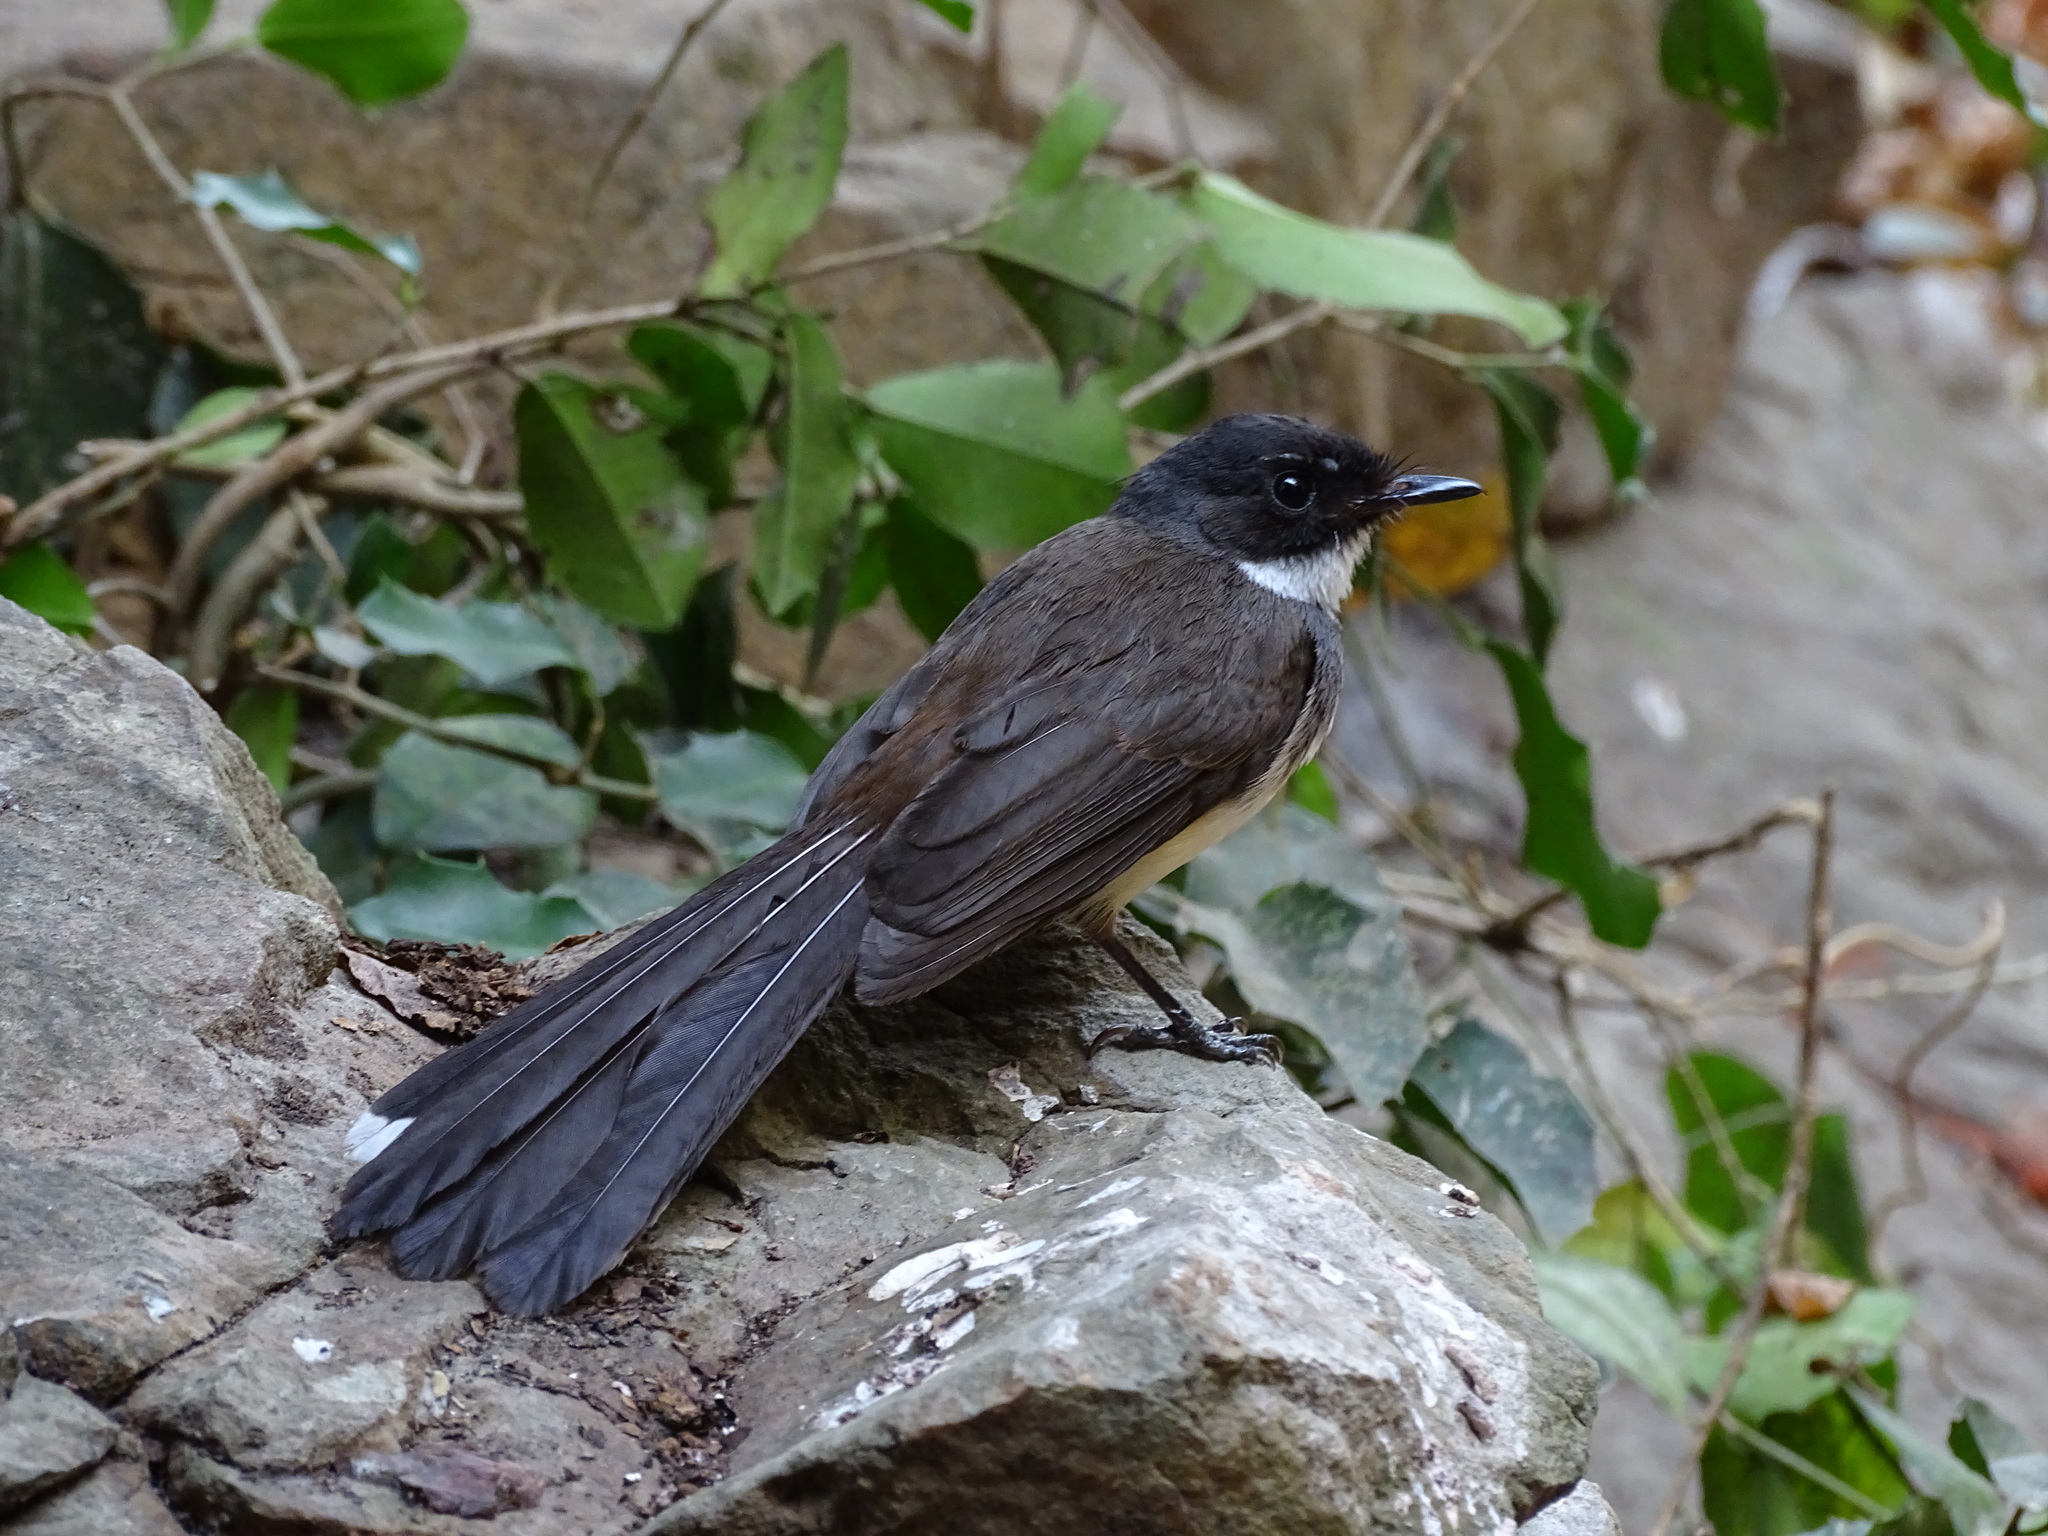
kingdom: Animalia
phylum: Chordata
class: Aves
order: Passeriformes
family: Rhipiduridae
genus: Rhipidura
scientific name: Rhipidura javanica
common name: Pied fantail
